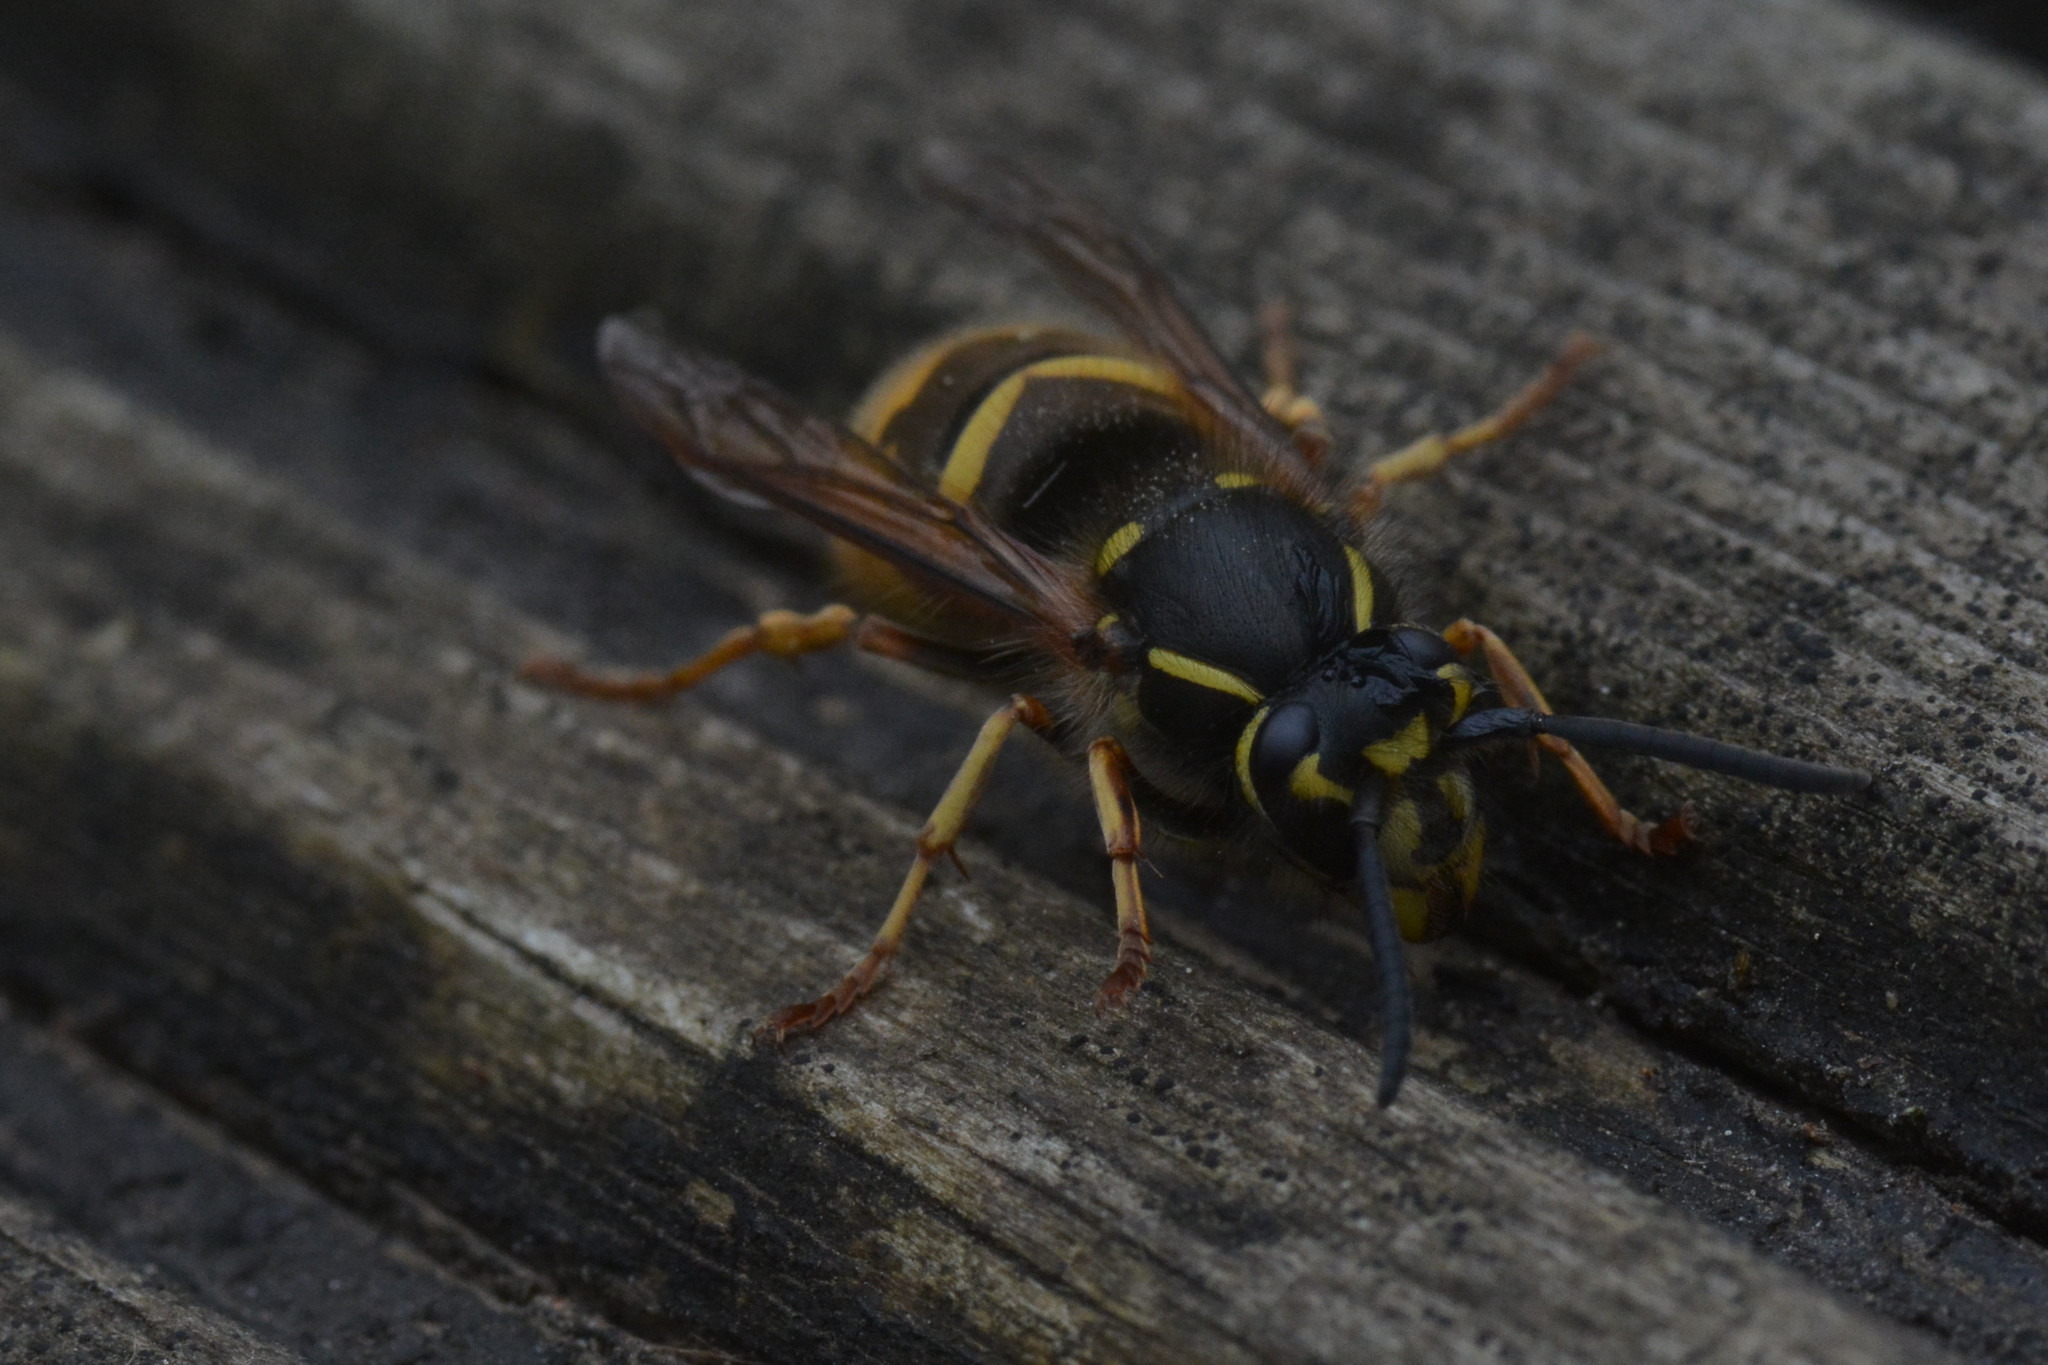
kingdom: Animalia
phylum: Arthropoda
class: Insecta
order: Hymenoptera
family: Vespidae
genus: Vespula
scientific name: Vespula vulgaris
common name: Common wasp
